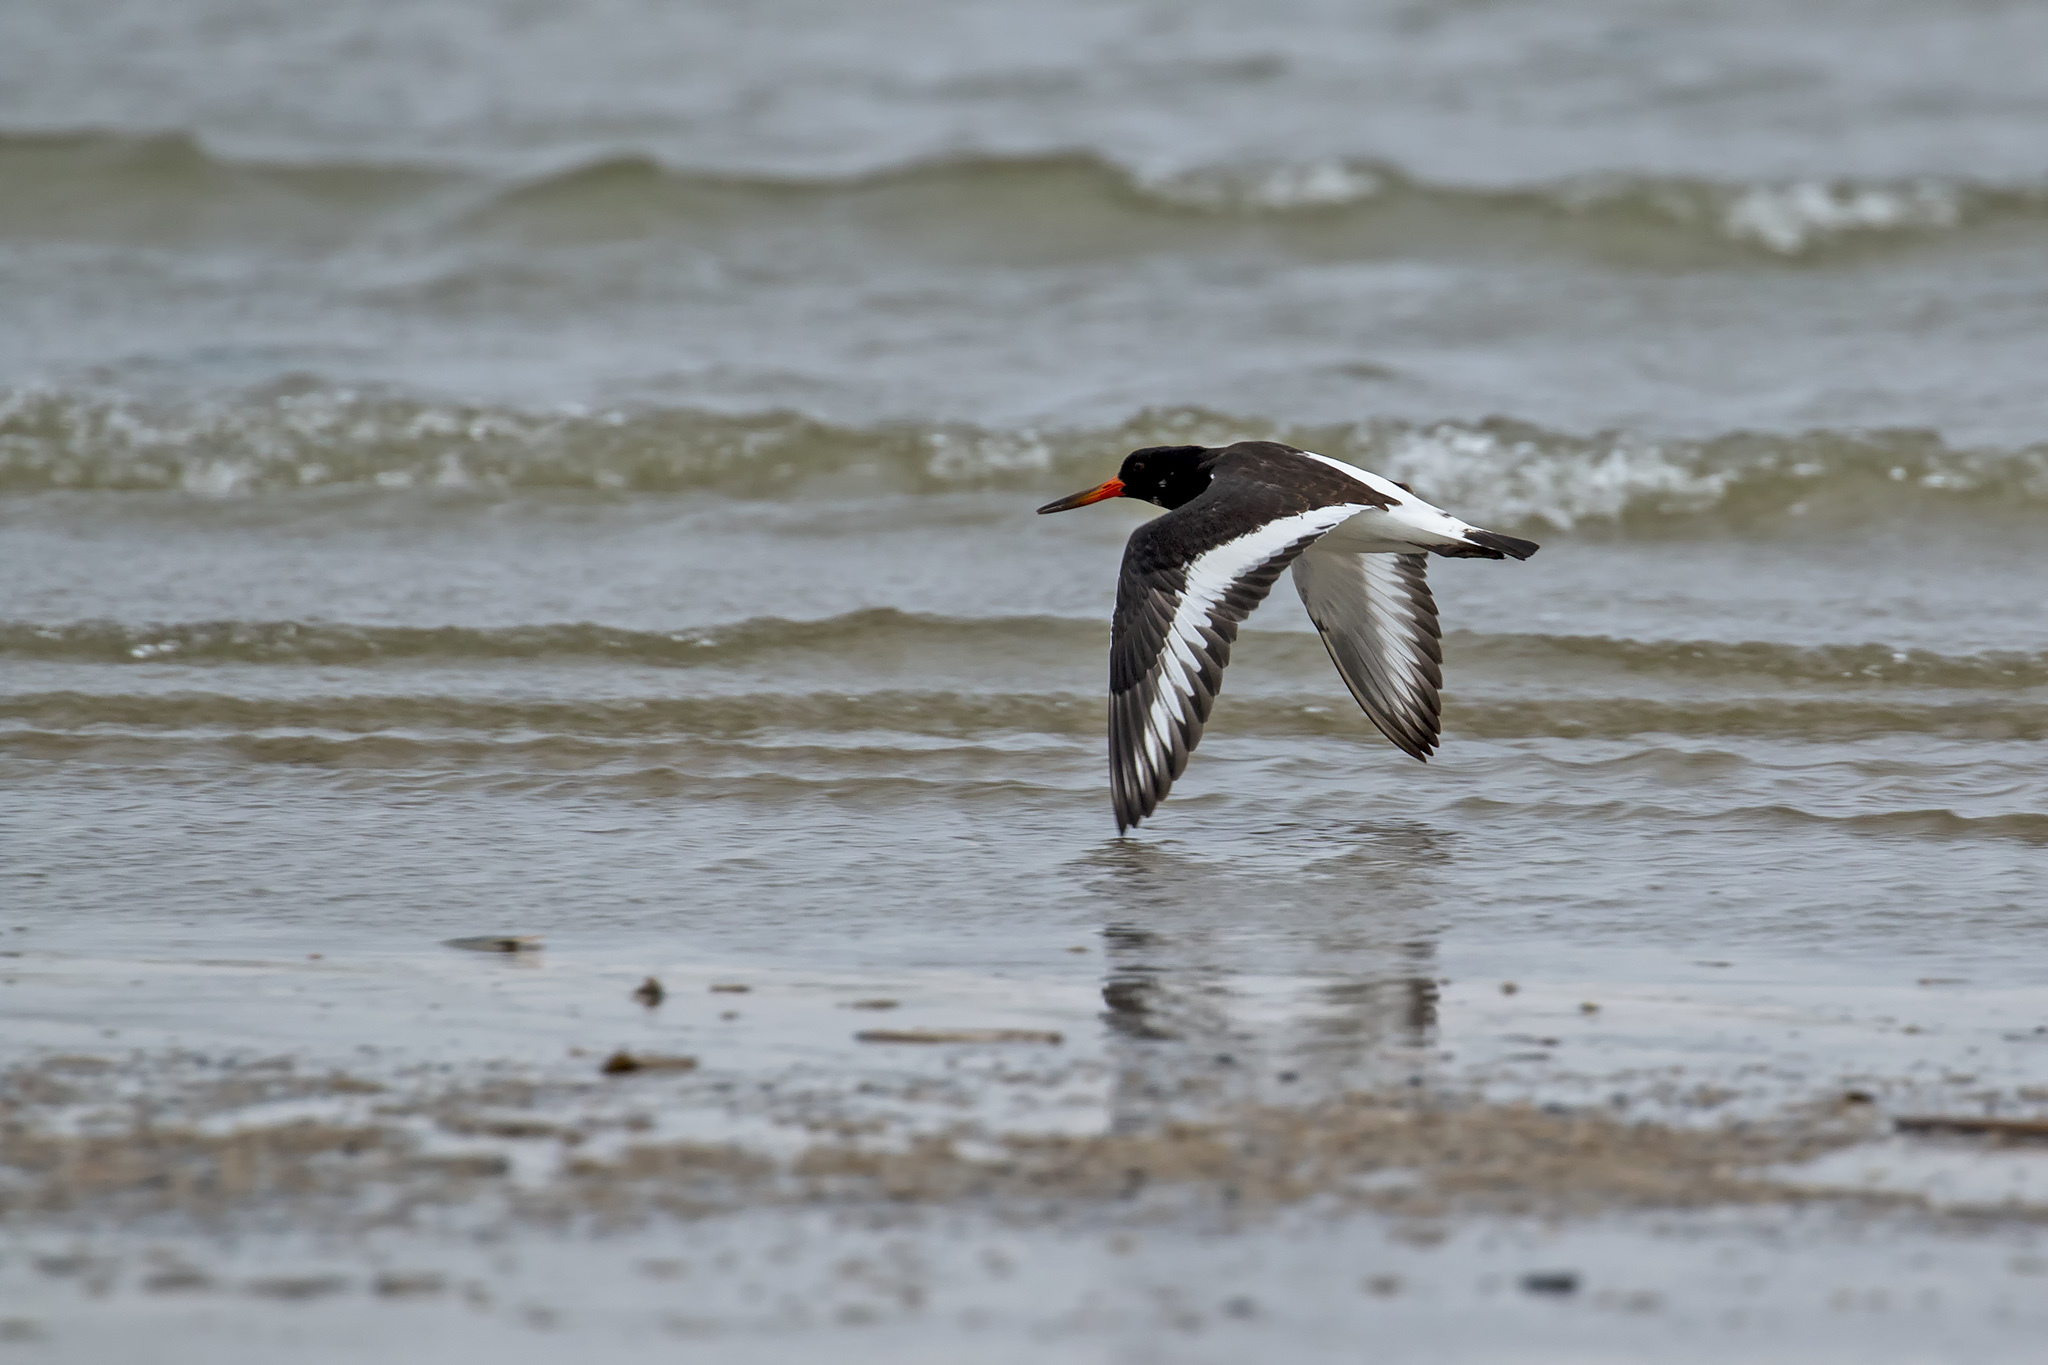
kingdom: Animalia
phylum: Chordata
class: Aves
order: Charadriiformes
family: Haematopodidae
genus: Haematopus
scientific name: Haematopus ostralegus
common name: Eurasian oystercatcher
